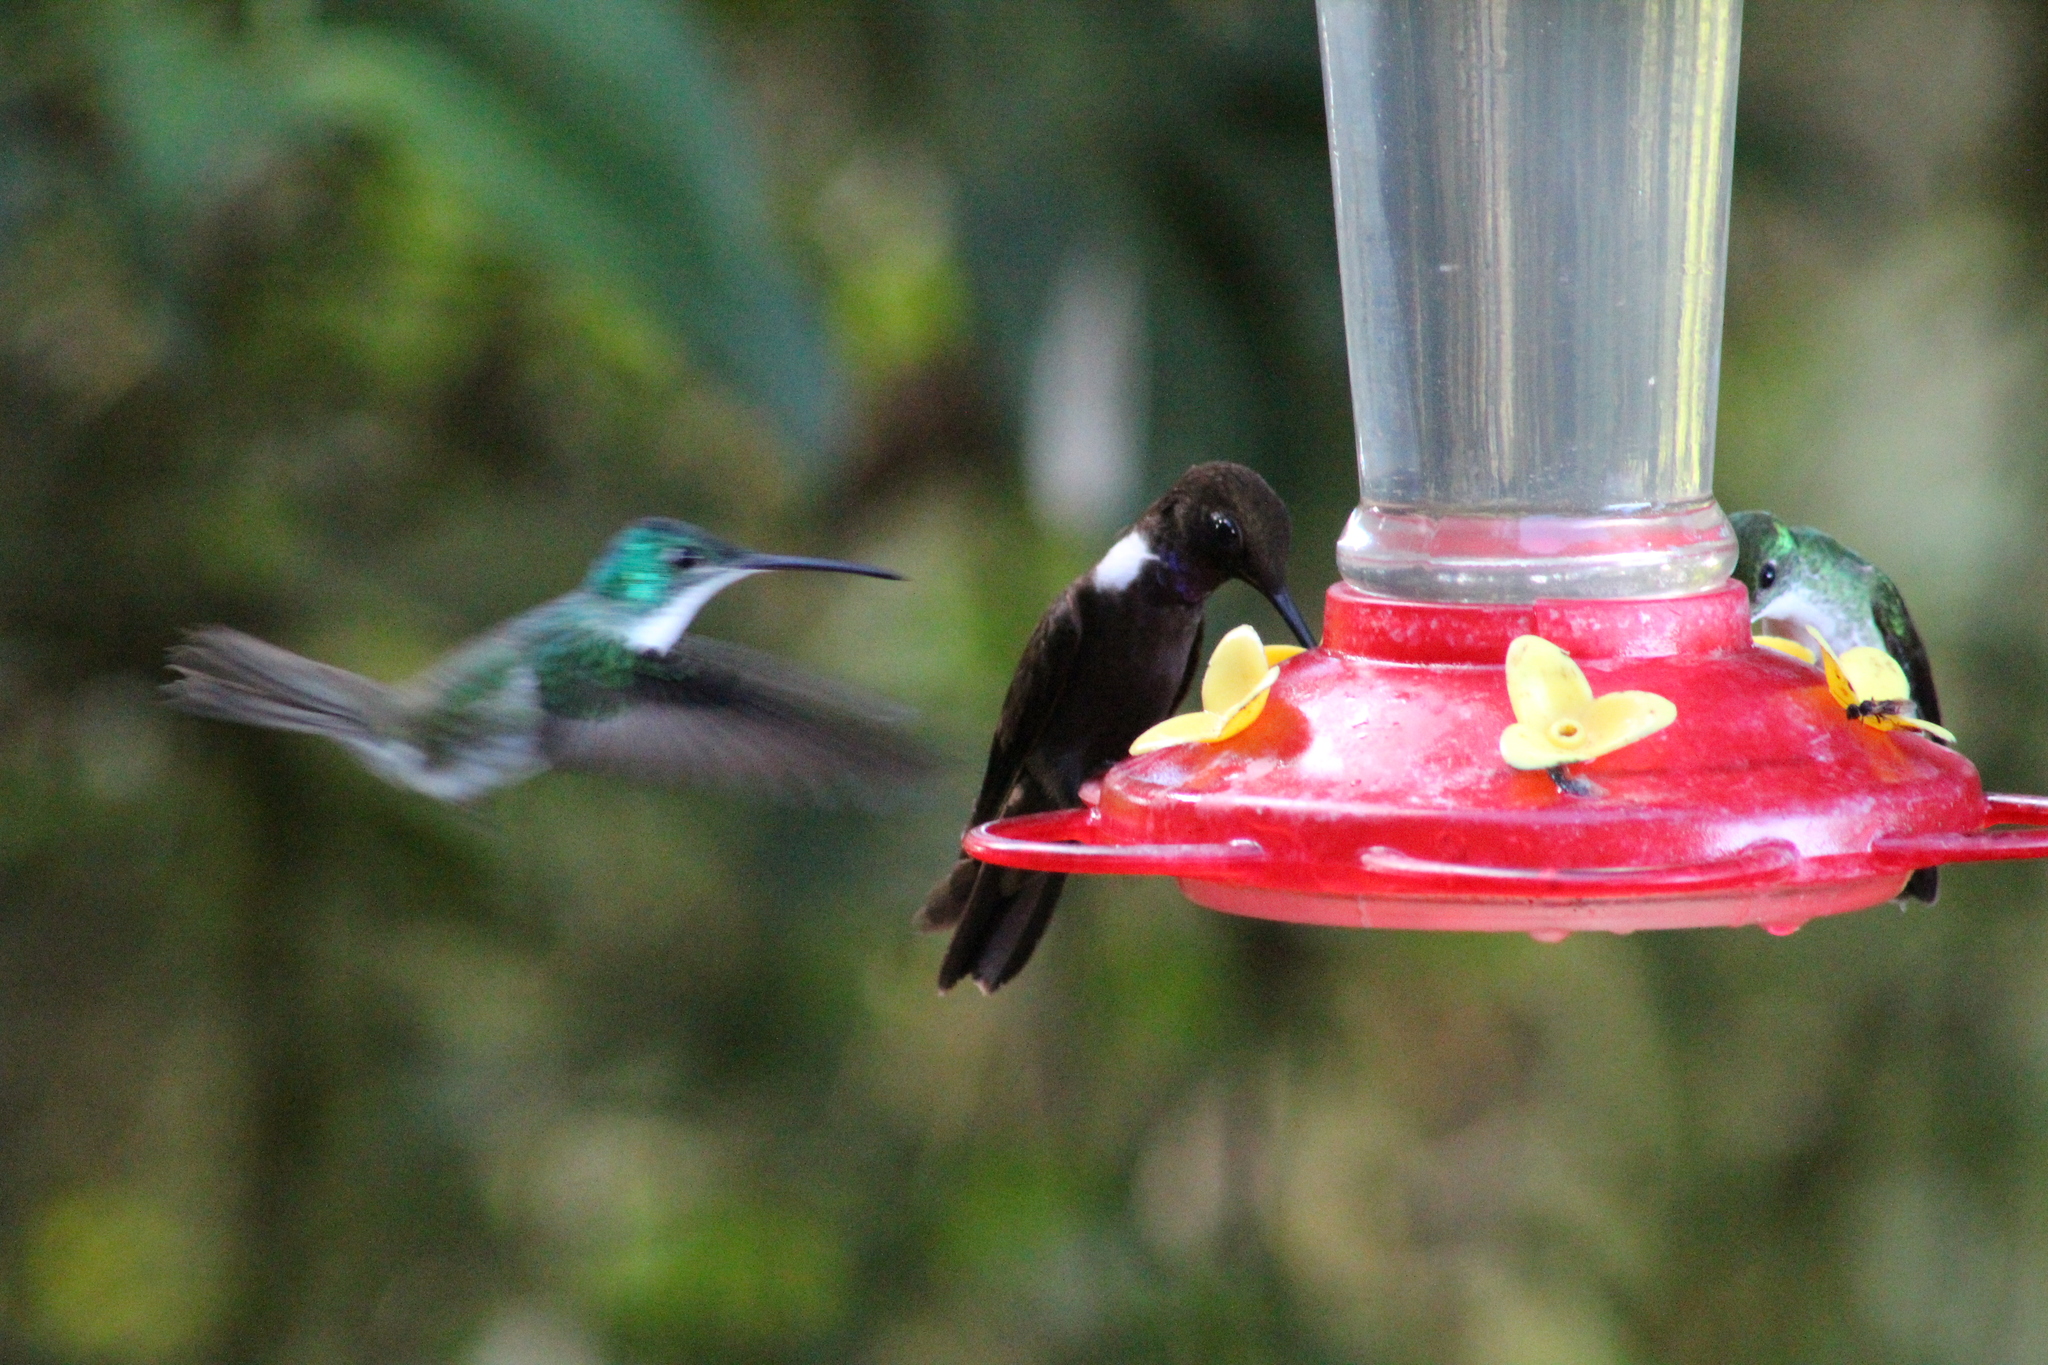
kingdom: Animalia
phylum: Chordata
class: Aves
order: Apodiformes
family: Trochilidae
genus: Coeligena
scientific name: Coeligena wilsoni
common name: Brown inca
